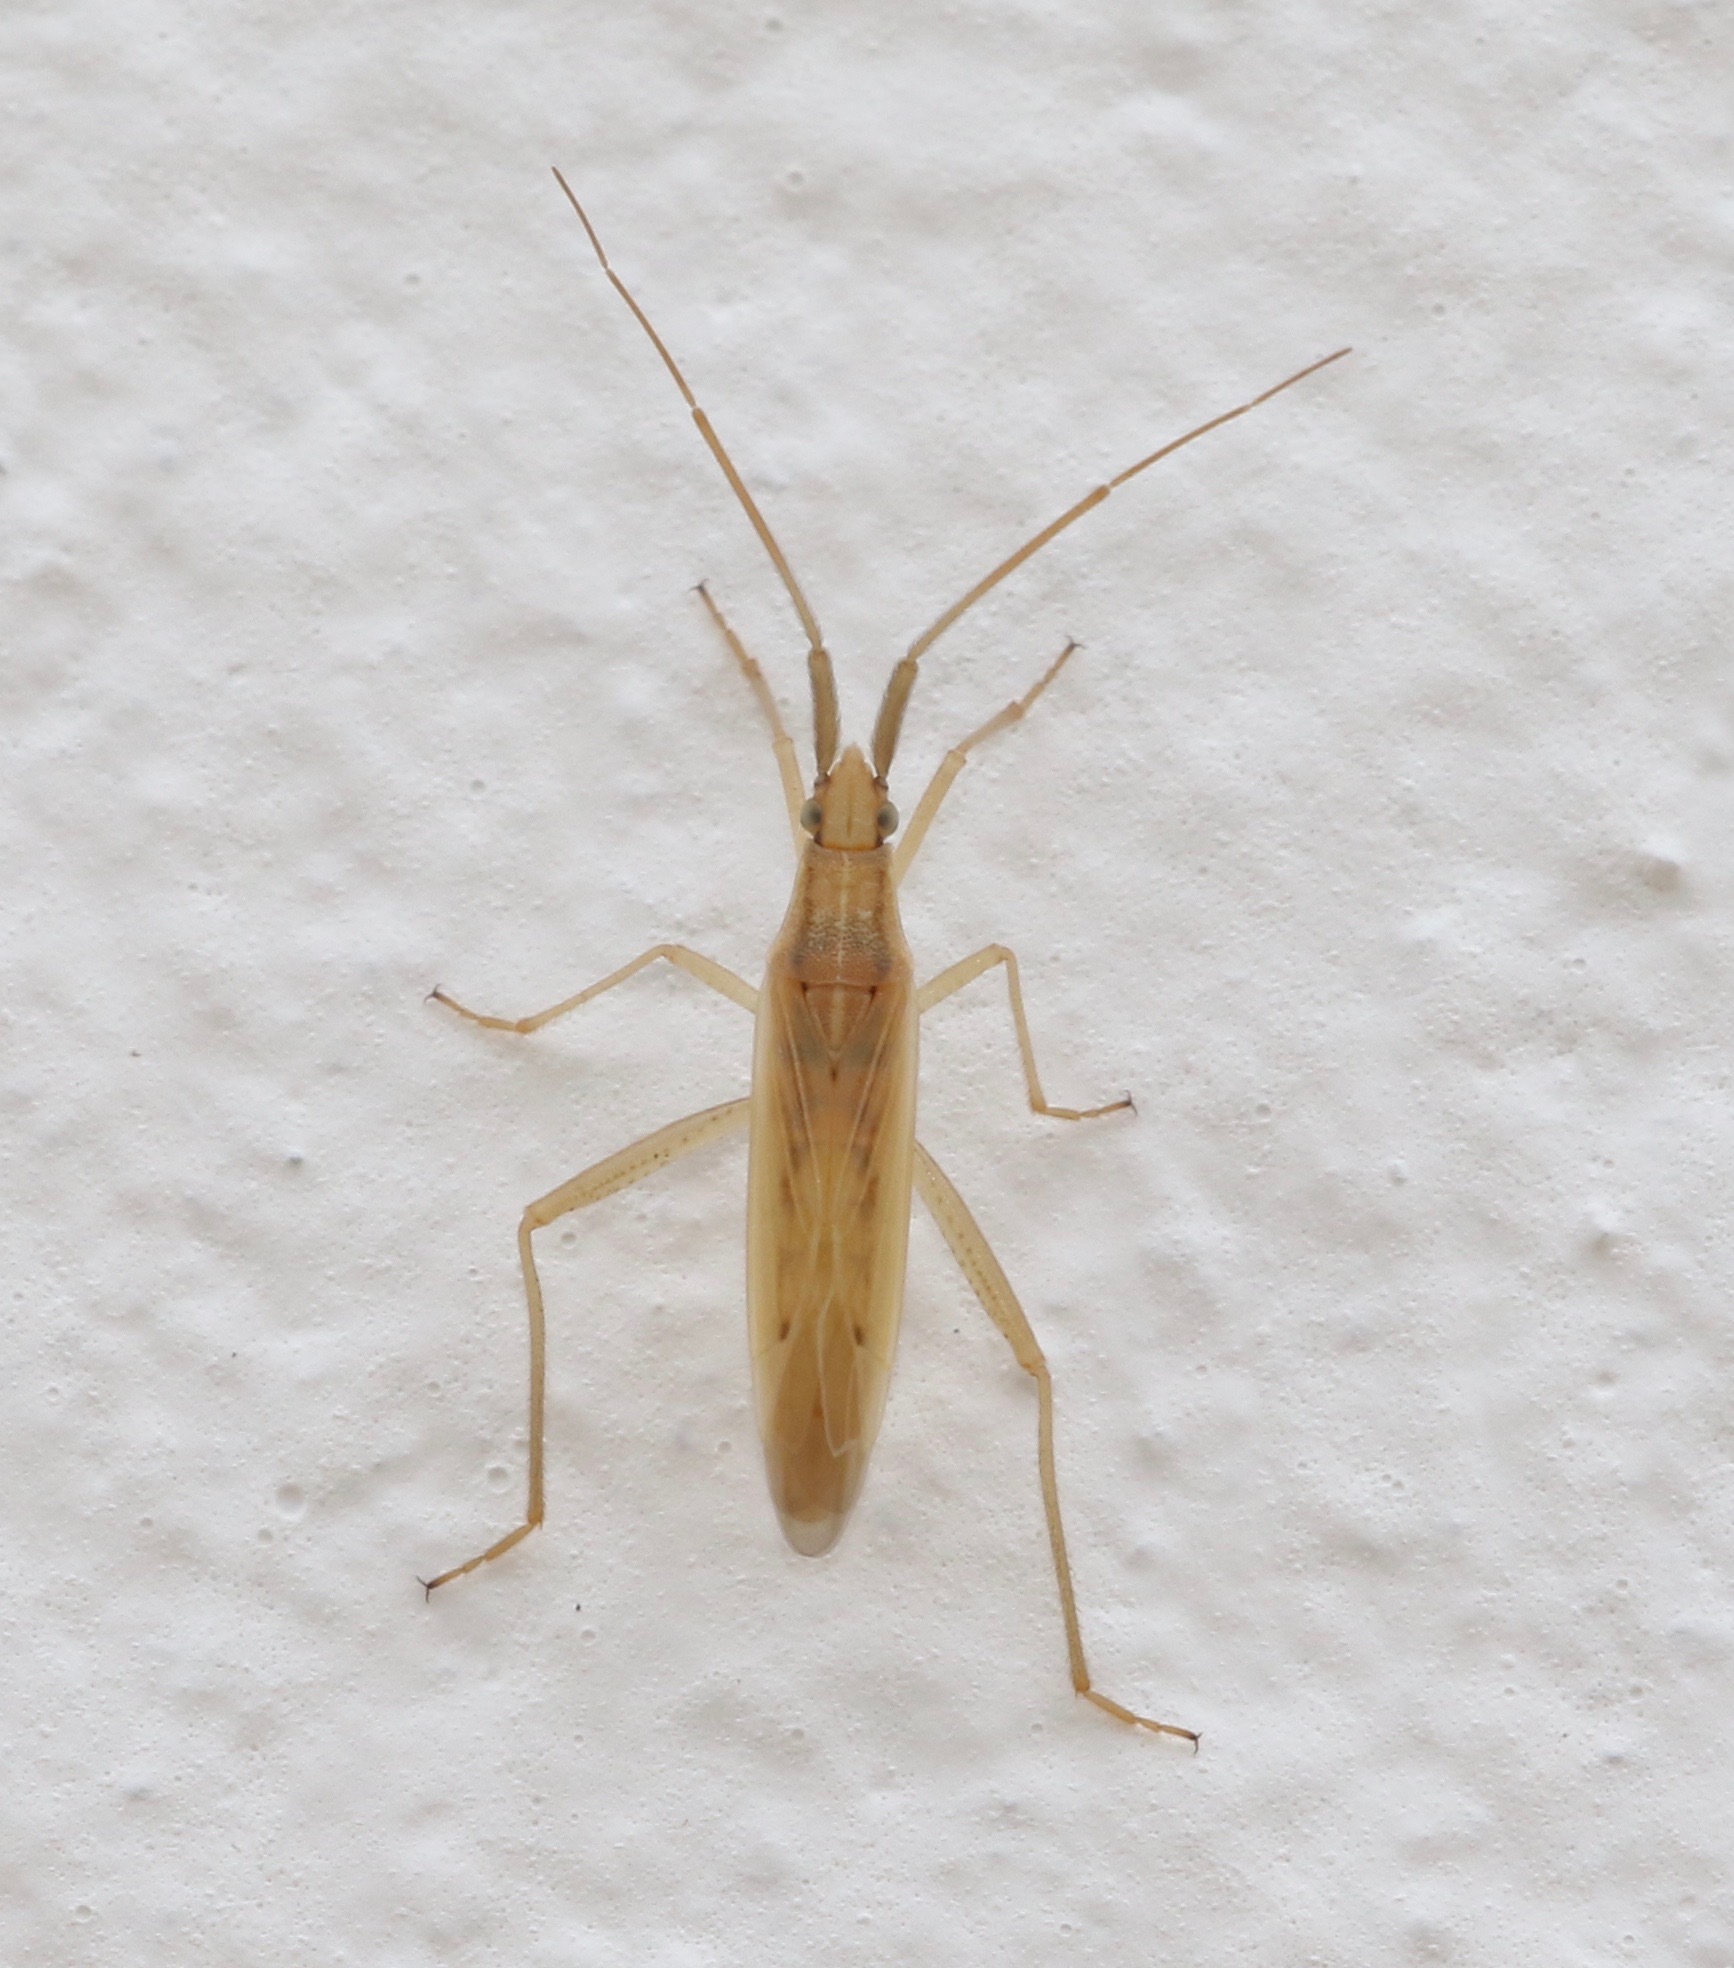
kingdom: Animalia
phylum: Arthropoda
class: Insecta
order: Hemiptera
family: Miridae
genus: Stenodema
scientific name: Stenodema laevigata
